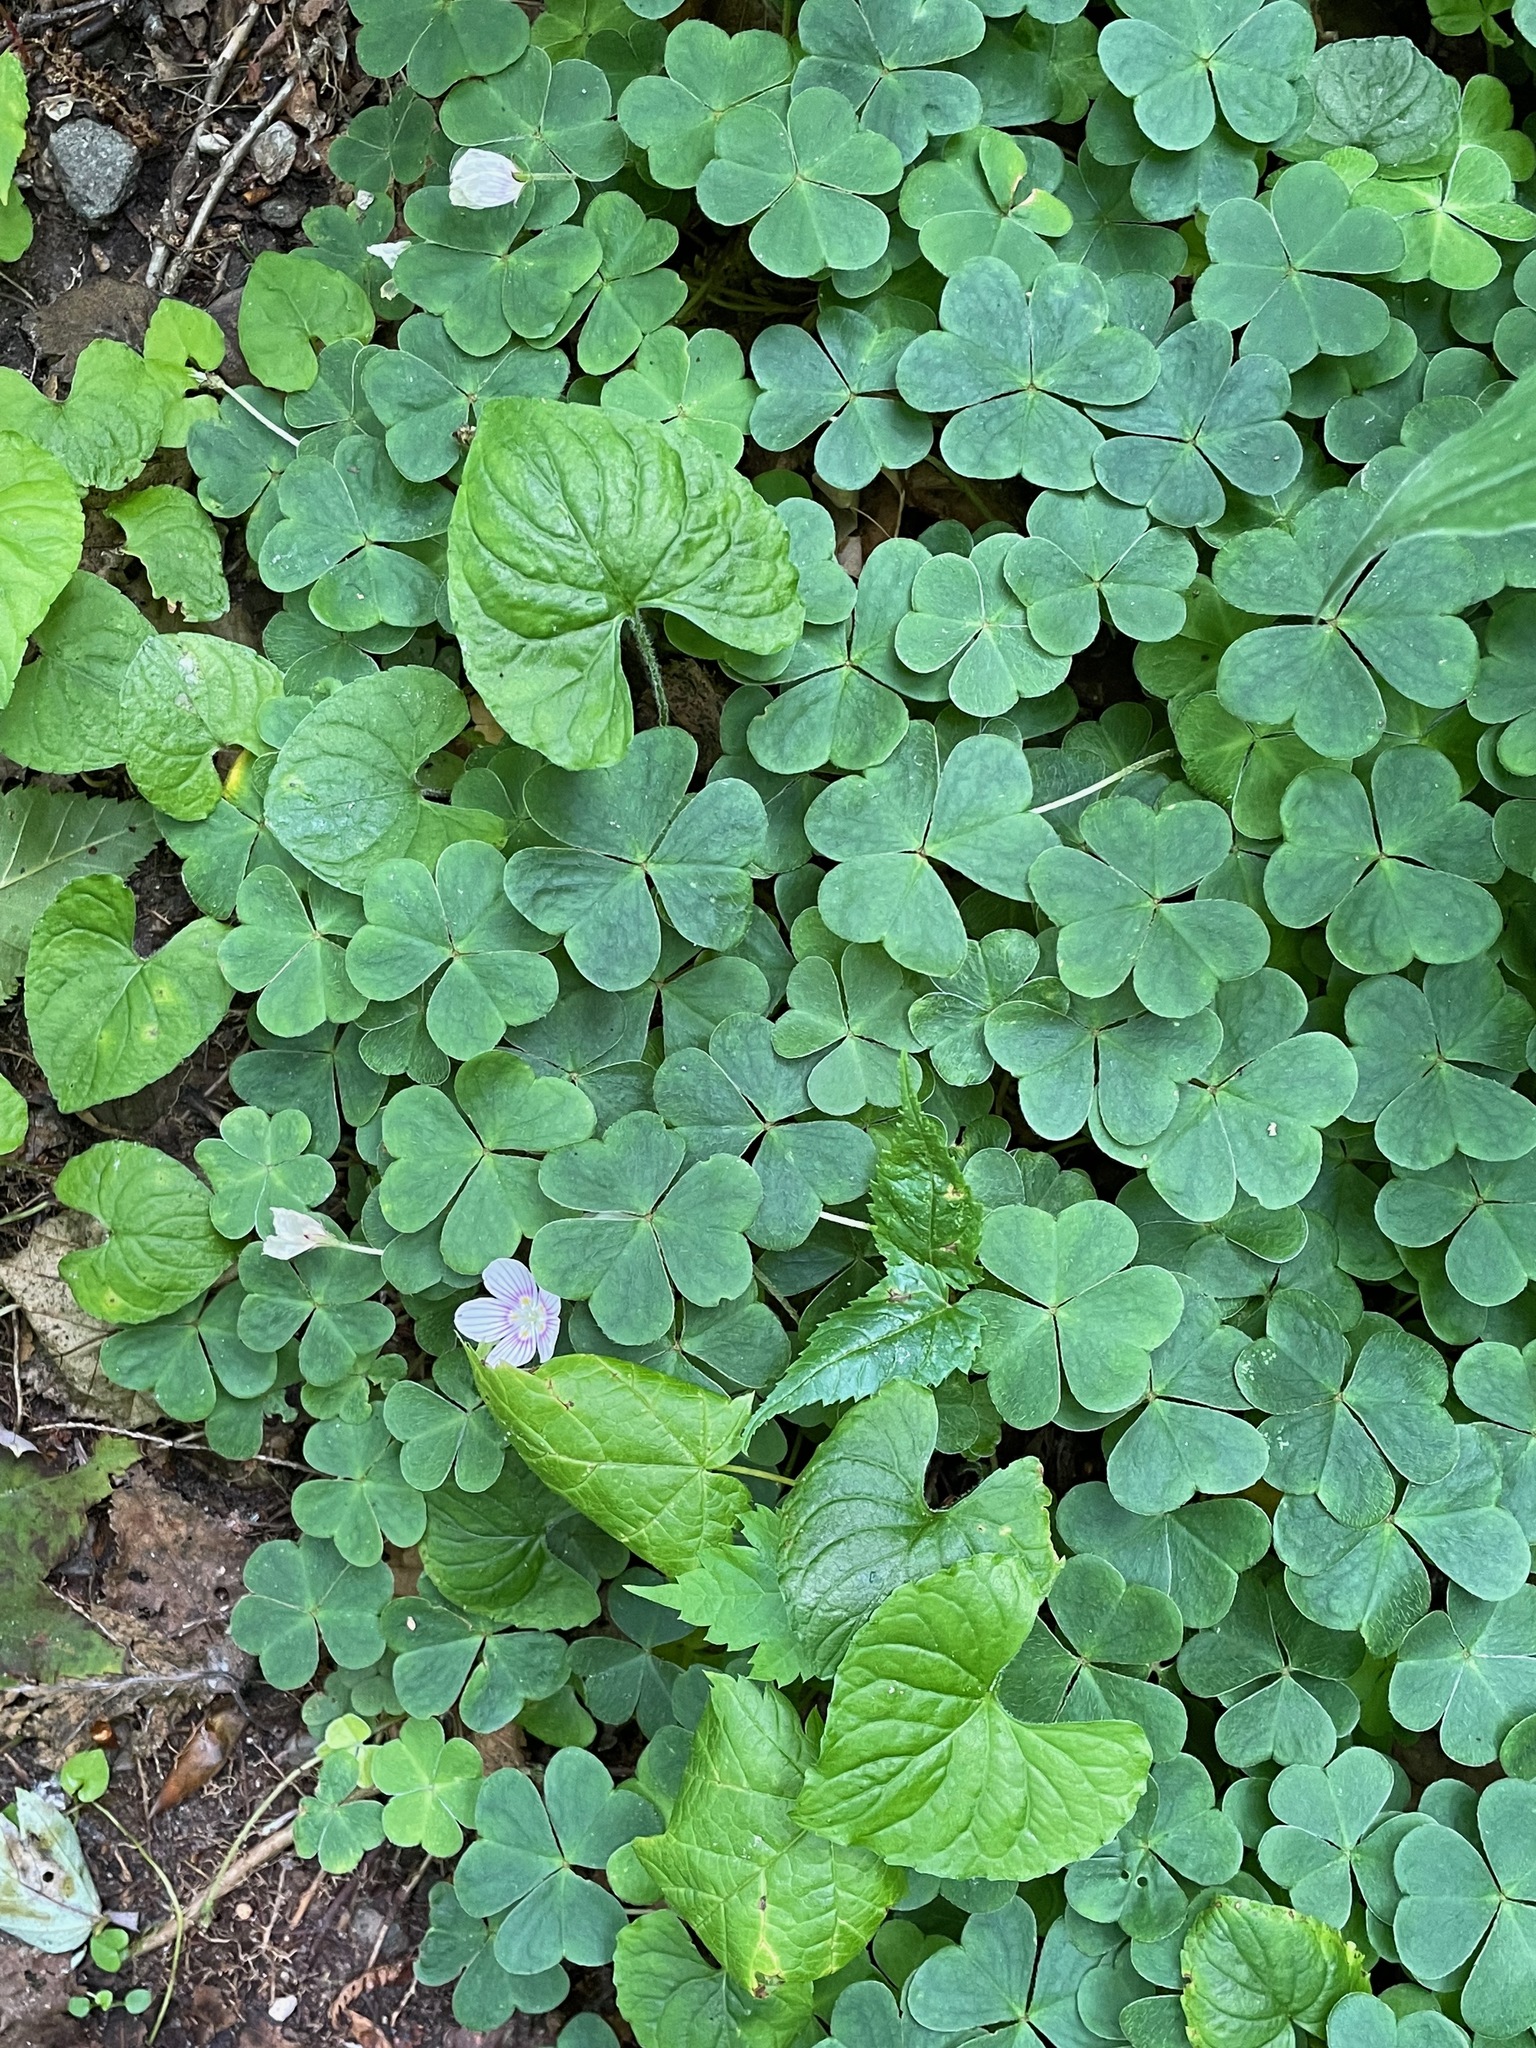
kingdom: Plantae
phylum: Tracheophyta
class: Magnoliopsida
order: Oxalidales
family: Oxalidaceae
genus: Oxalis
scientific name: Oxalis montana
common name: American wood-sorrel
